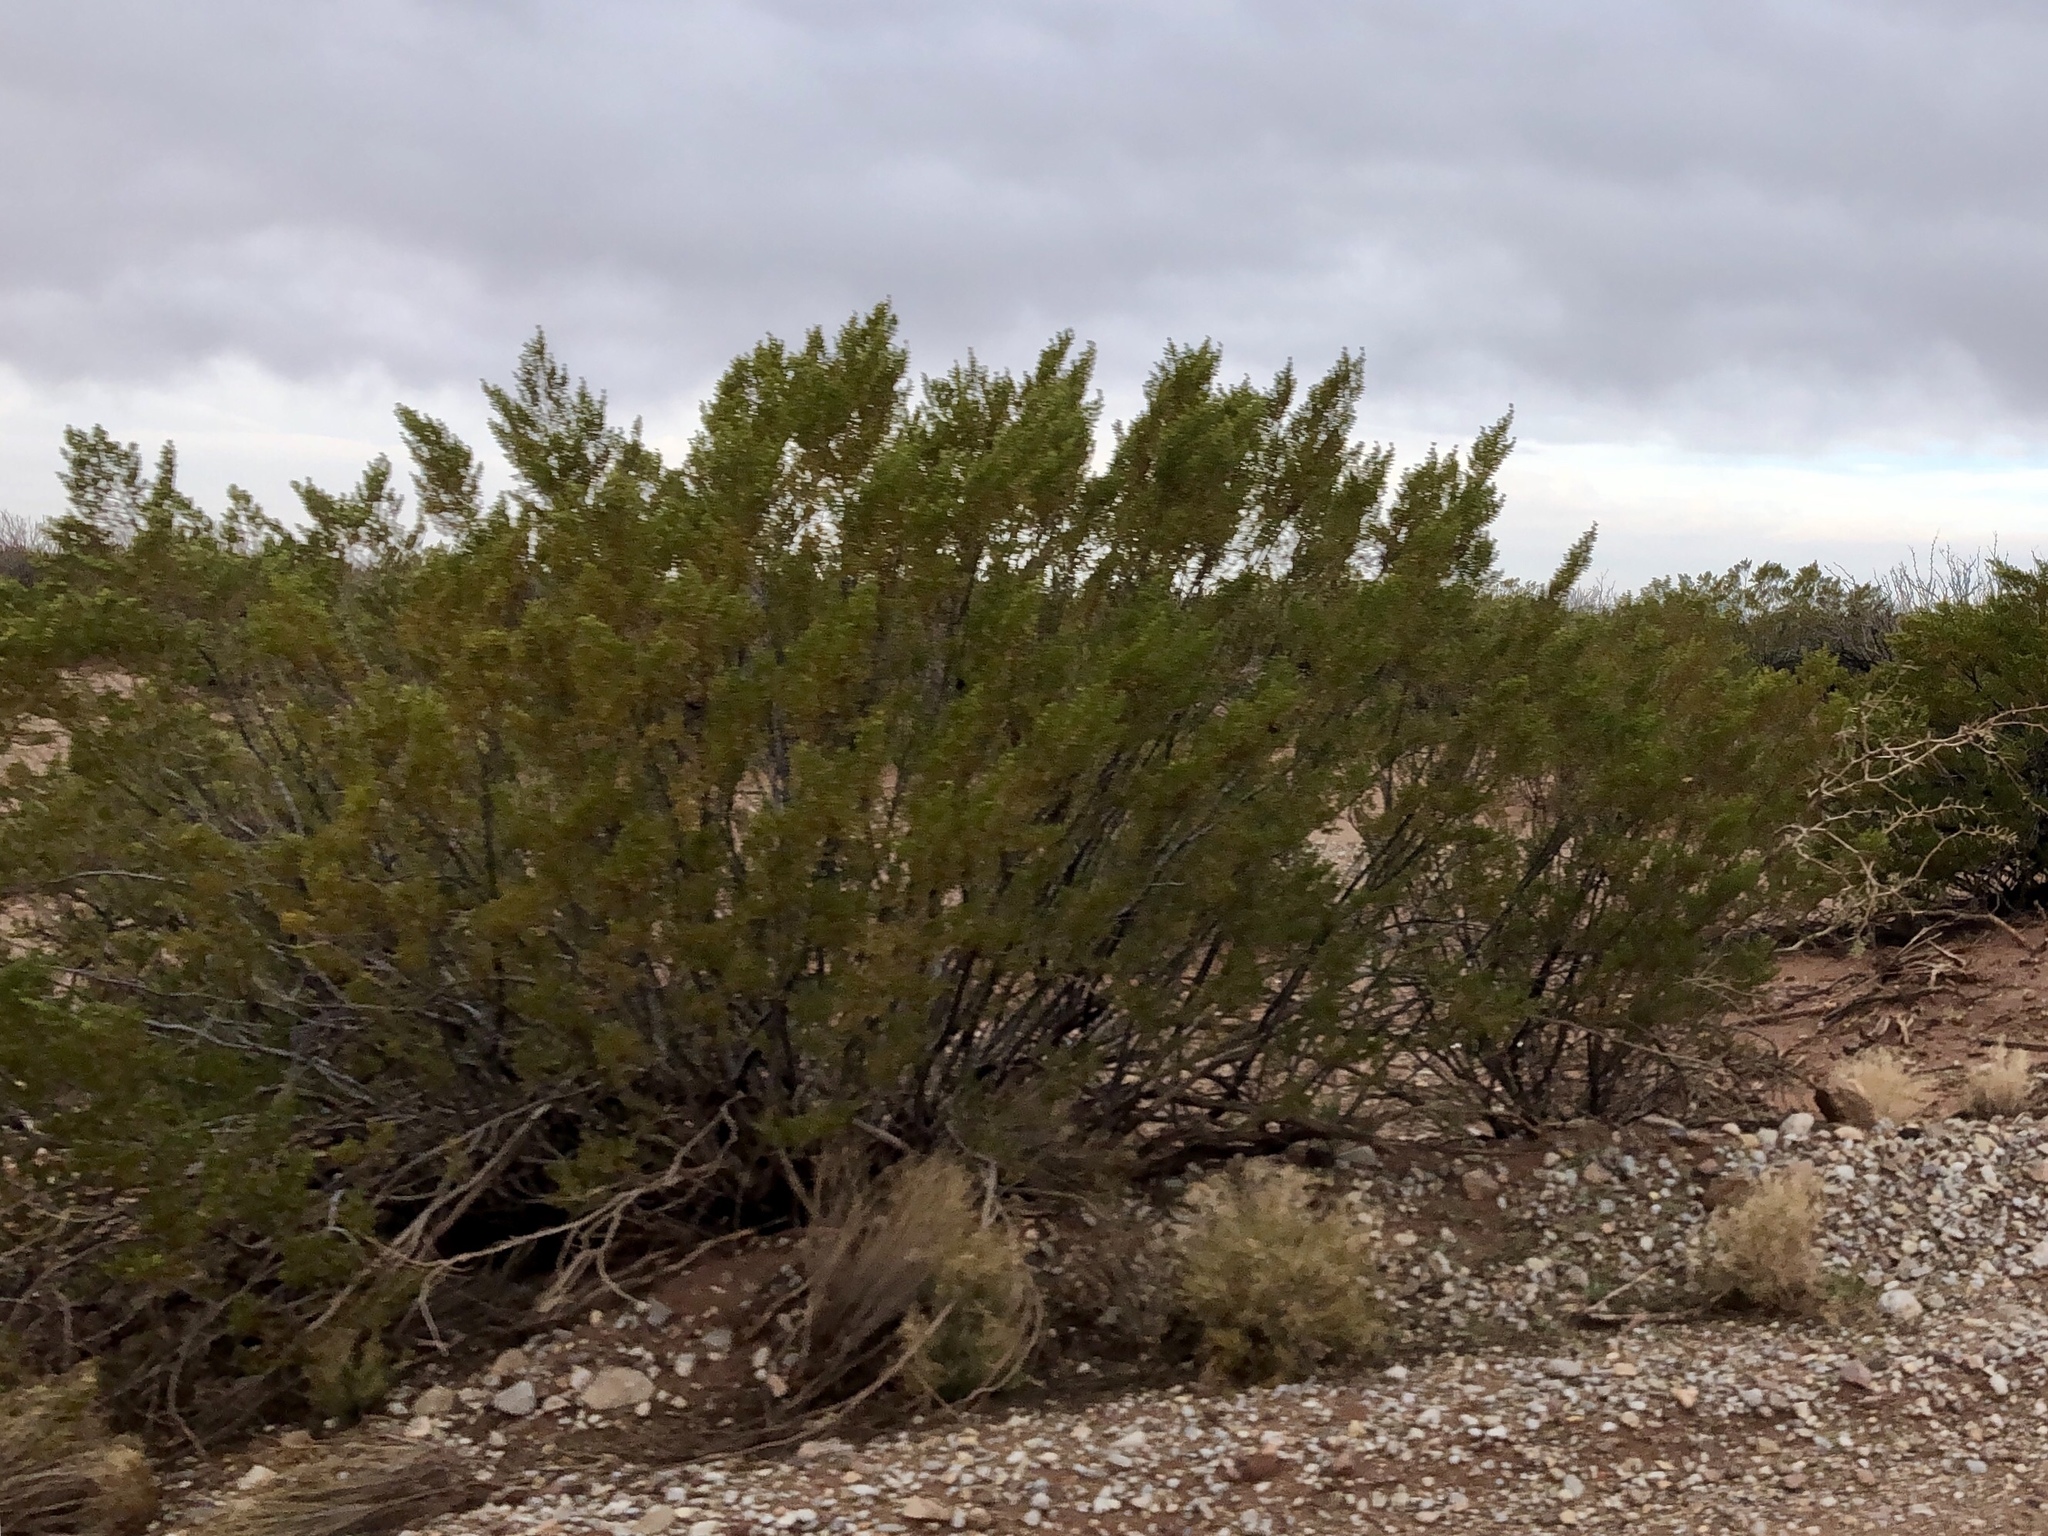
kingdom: Plantae
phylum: Tracheophyta
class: Magnoliopsida
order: Zygophyllales
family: Zygophyllaceae
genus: Larrea
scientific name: Larrea tridentata
